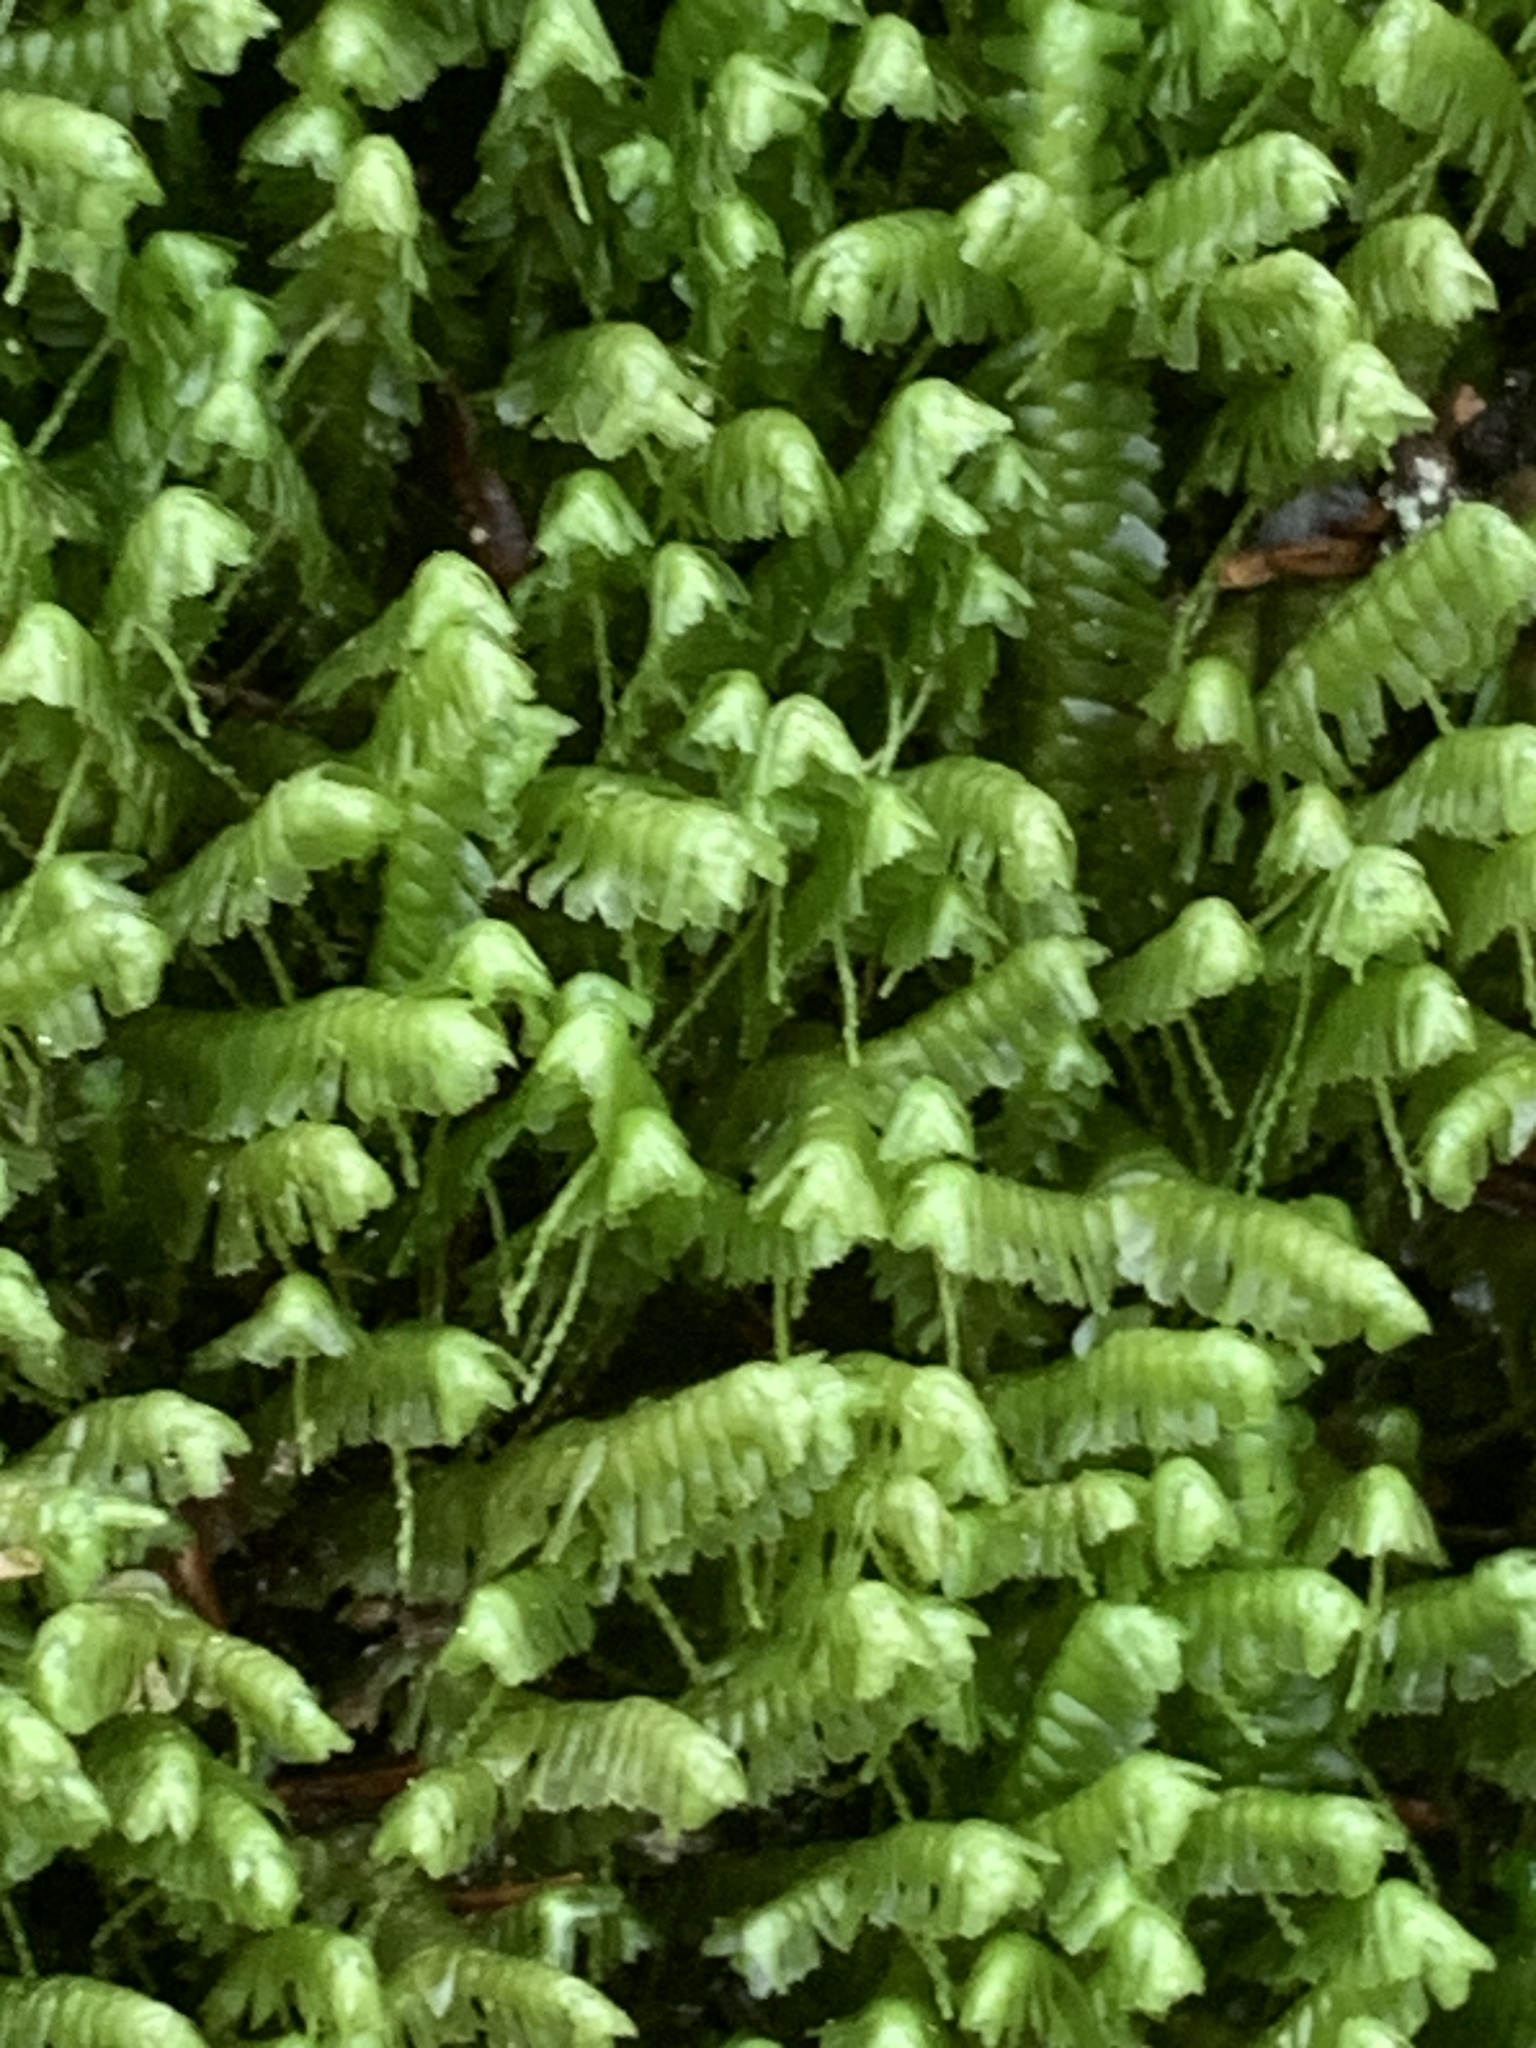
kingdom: Plantae
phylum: Marchantiophyta
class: Jungermanniopsida
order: Jungermanniales
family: Lepidoziaceae
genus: Bazzania
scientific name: Bazzania trilobata
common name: Three-lobed whipwort
